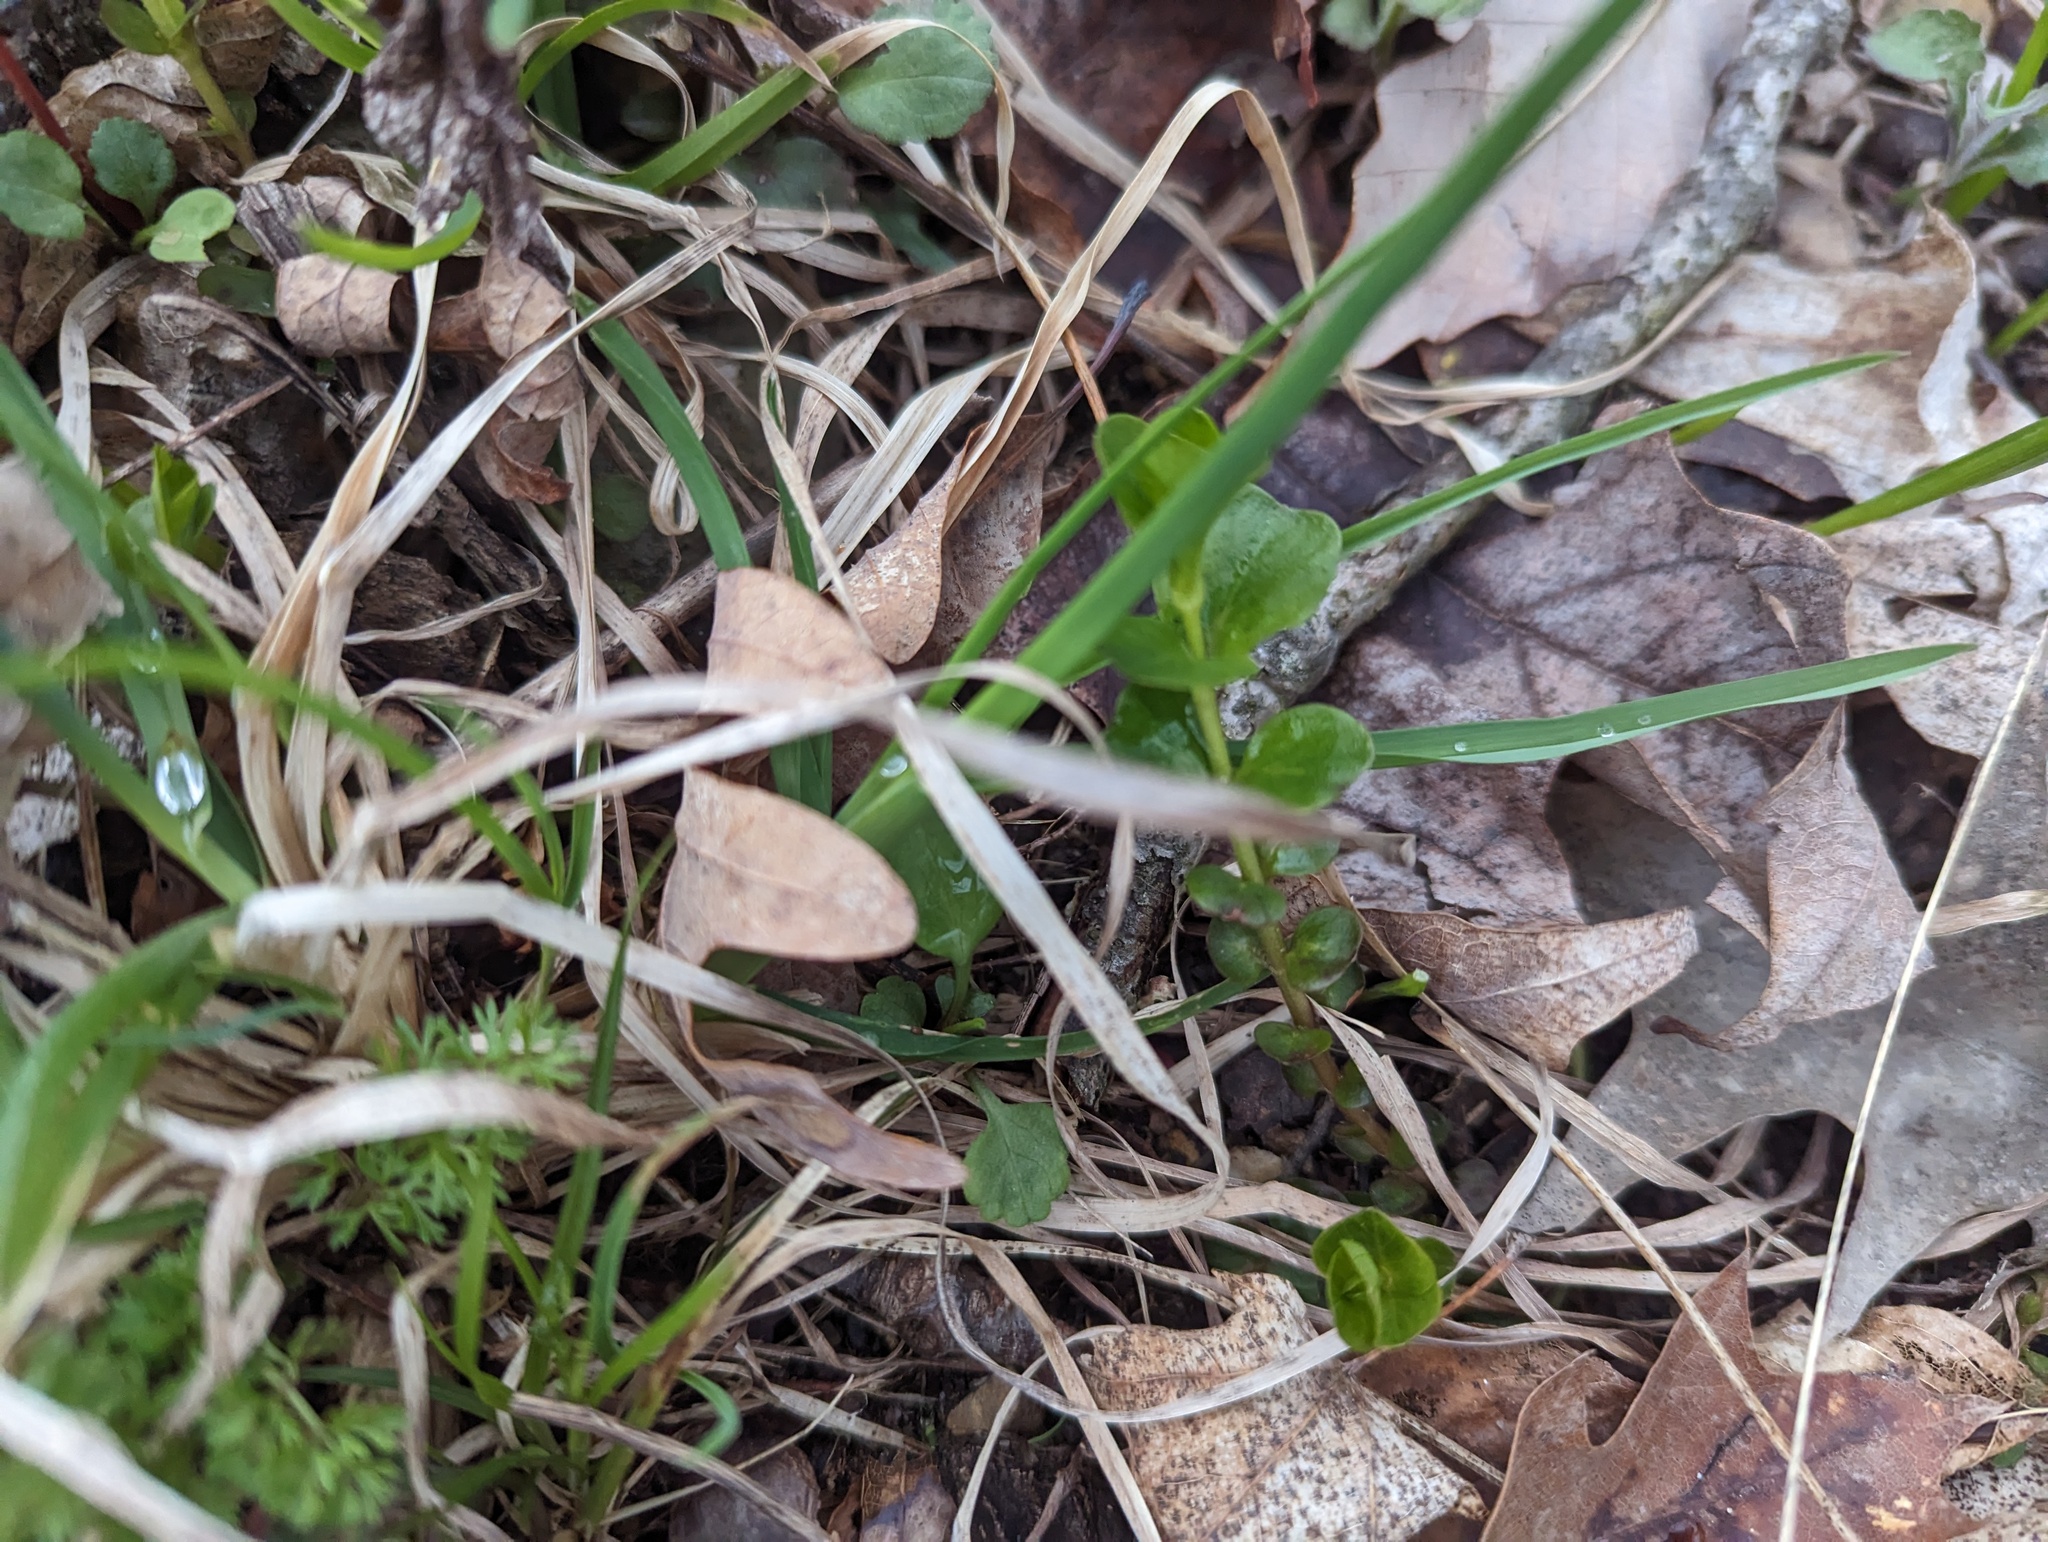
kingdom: Plantae
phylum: Tracheophyta
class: Magnoliopsida
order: Ericales
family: Primulaceae
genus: Lysimachia
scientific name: Lysimachia nummularia
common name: Moneywort
